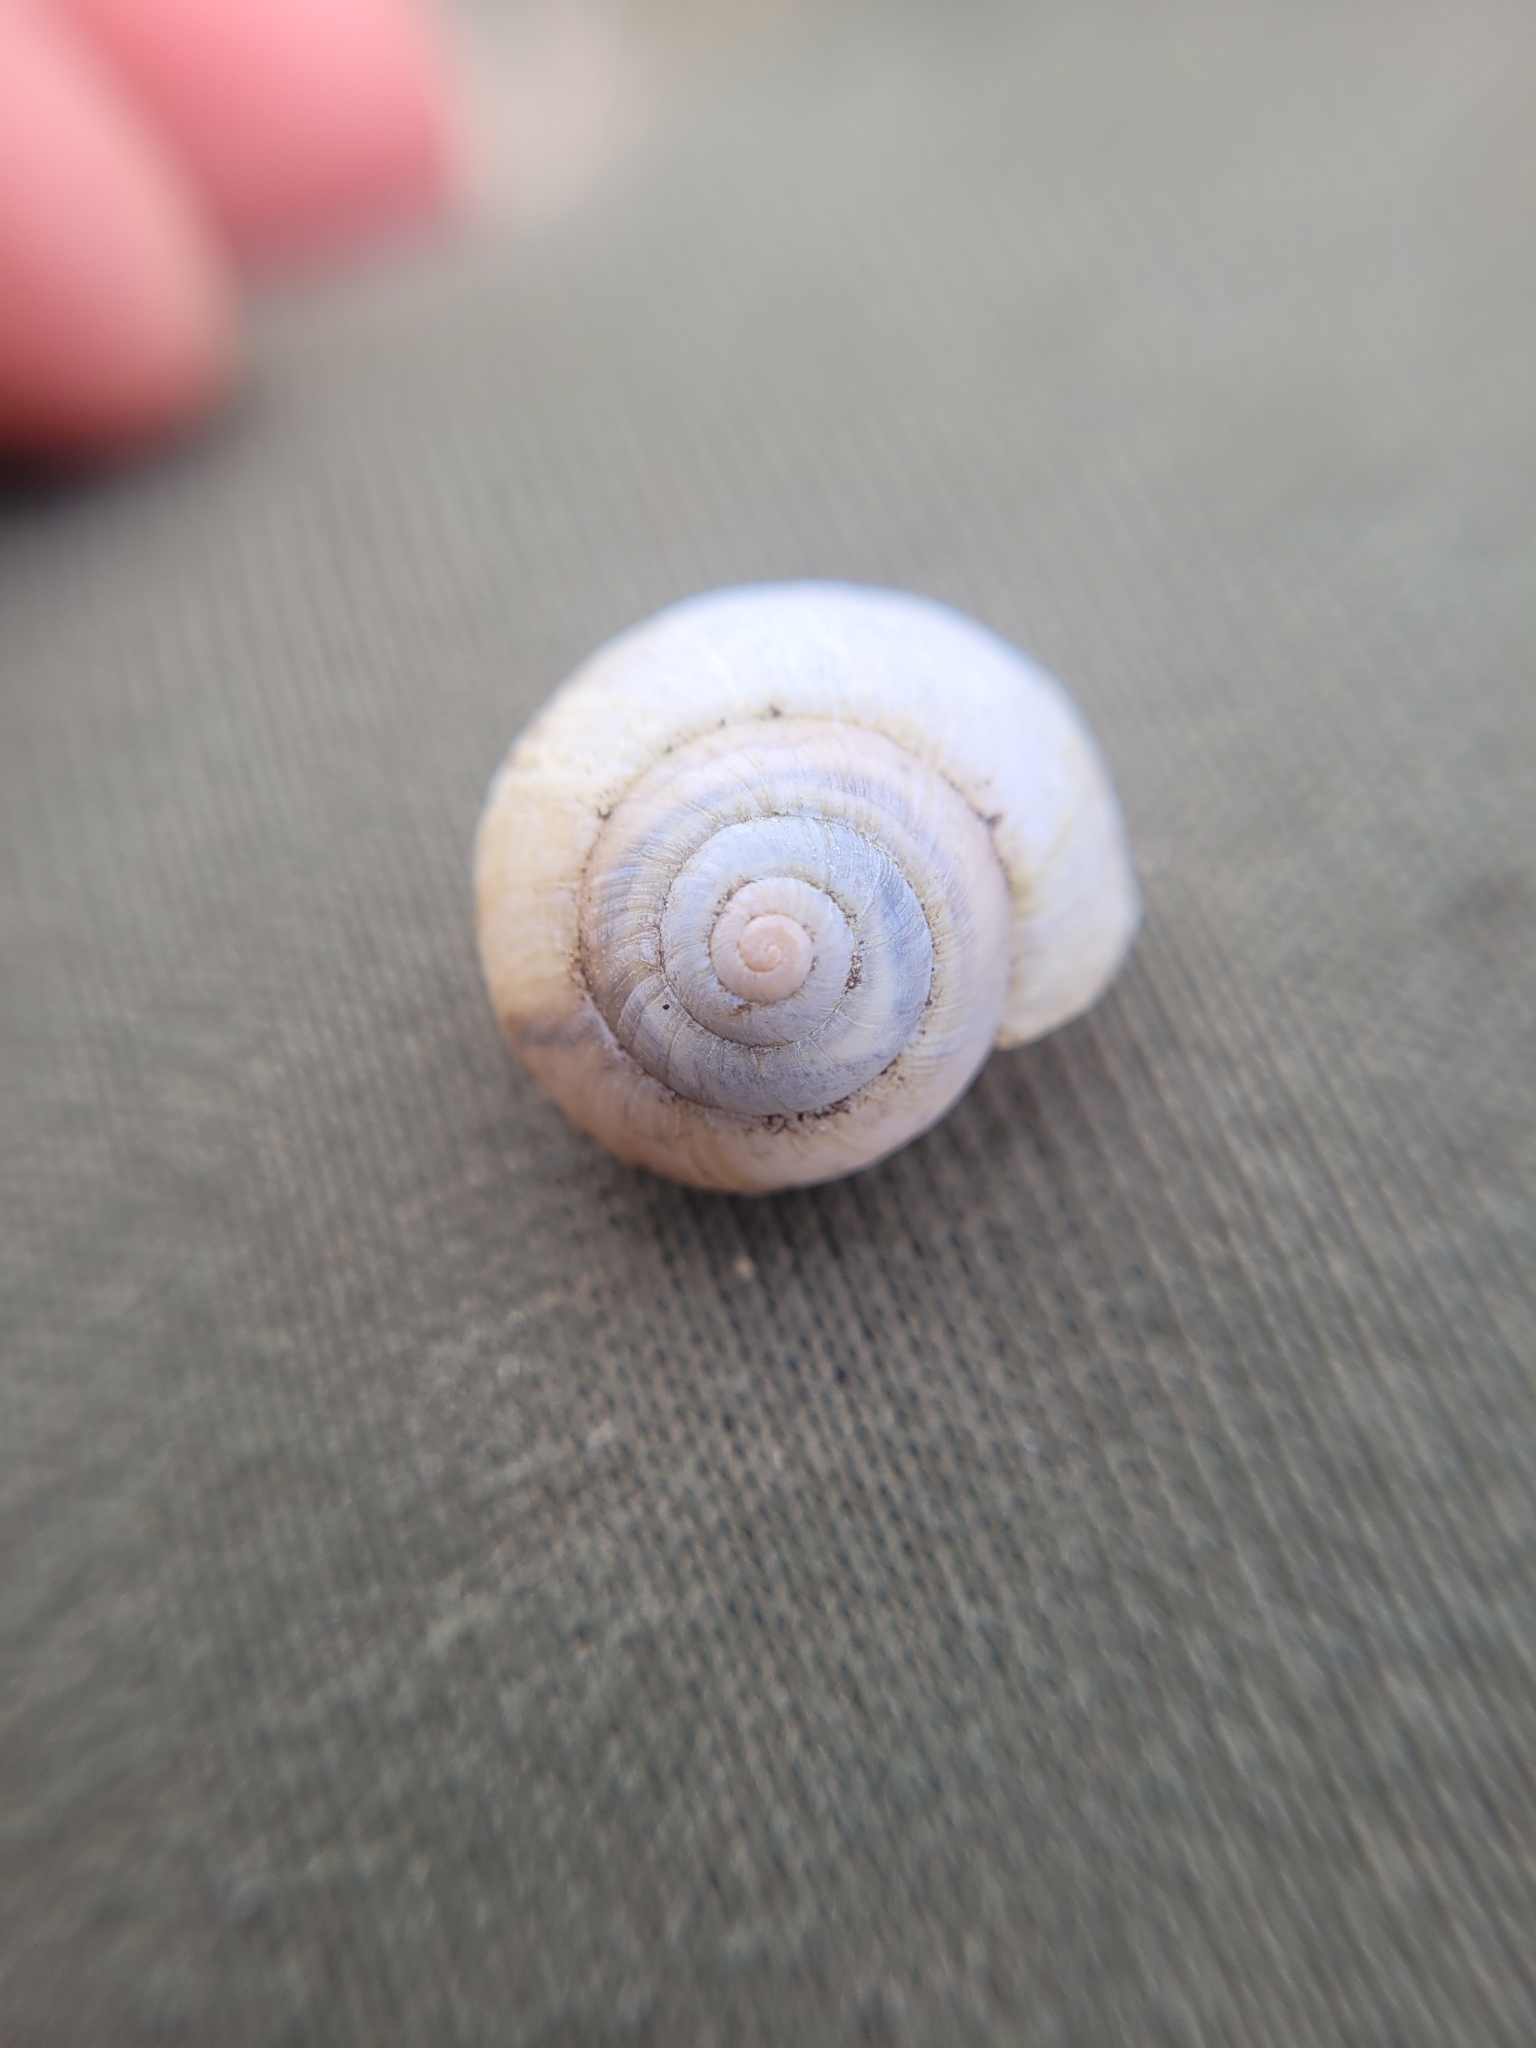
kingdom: Animalia
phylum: Mollusca
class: Gastropoda
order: Stylommatophora
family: Camaenidae
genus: Fruticicola
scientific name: Fruticicola fruticum
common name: Bush snail
